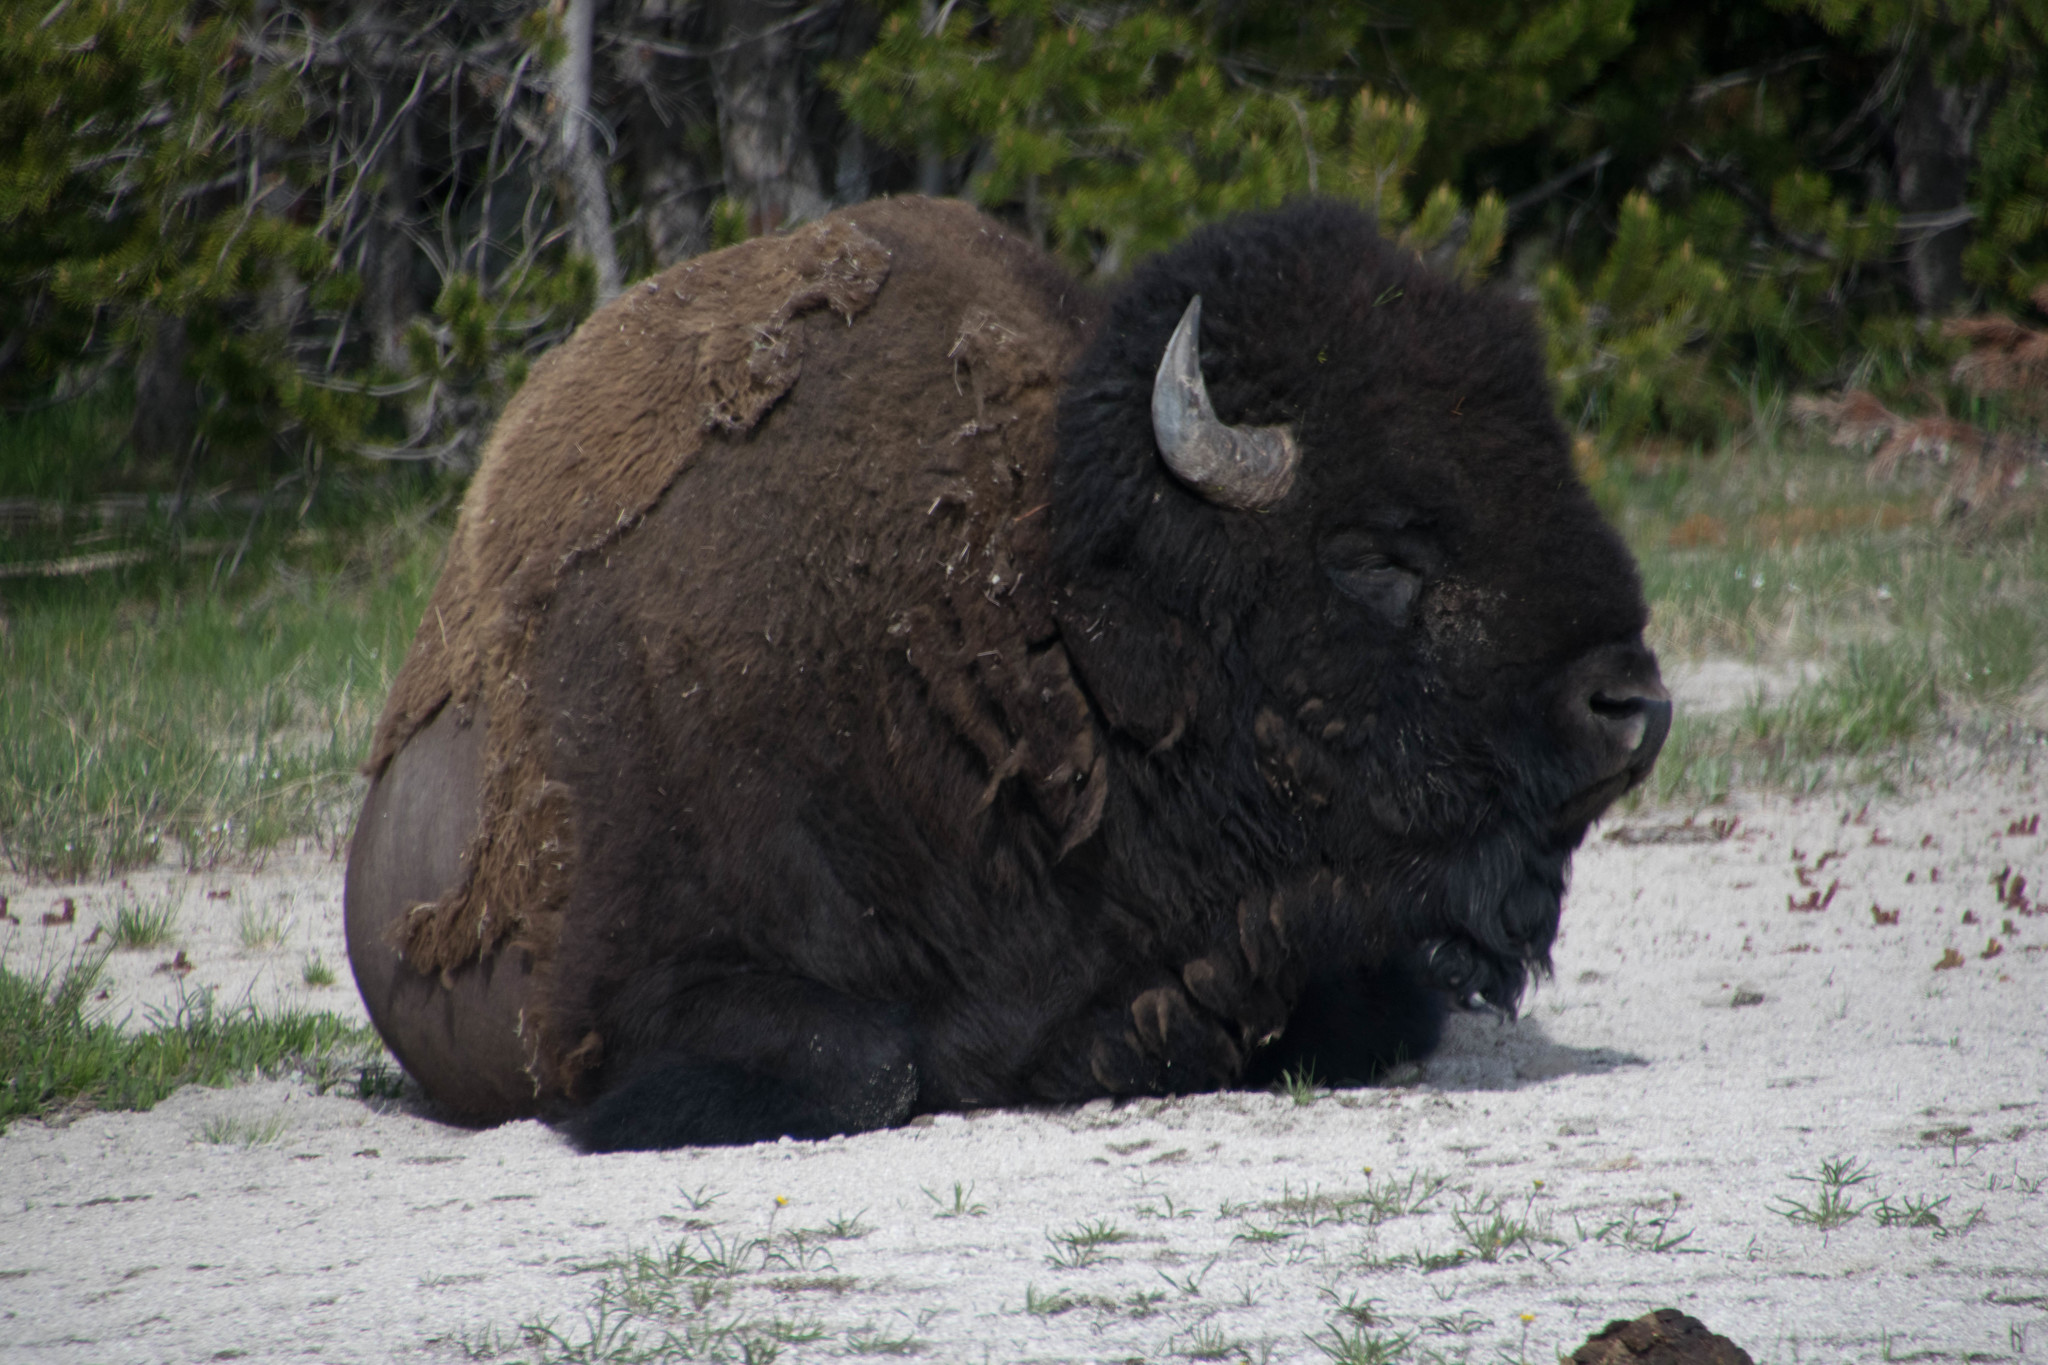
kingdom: Animalia
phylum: Chordata
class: Mammalia
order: Artiodactyla
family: Bovidae
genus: Bison
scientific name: Bison bison
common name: American bison
